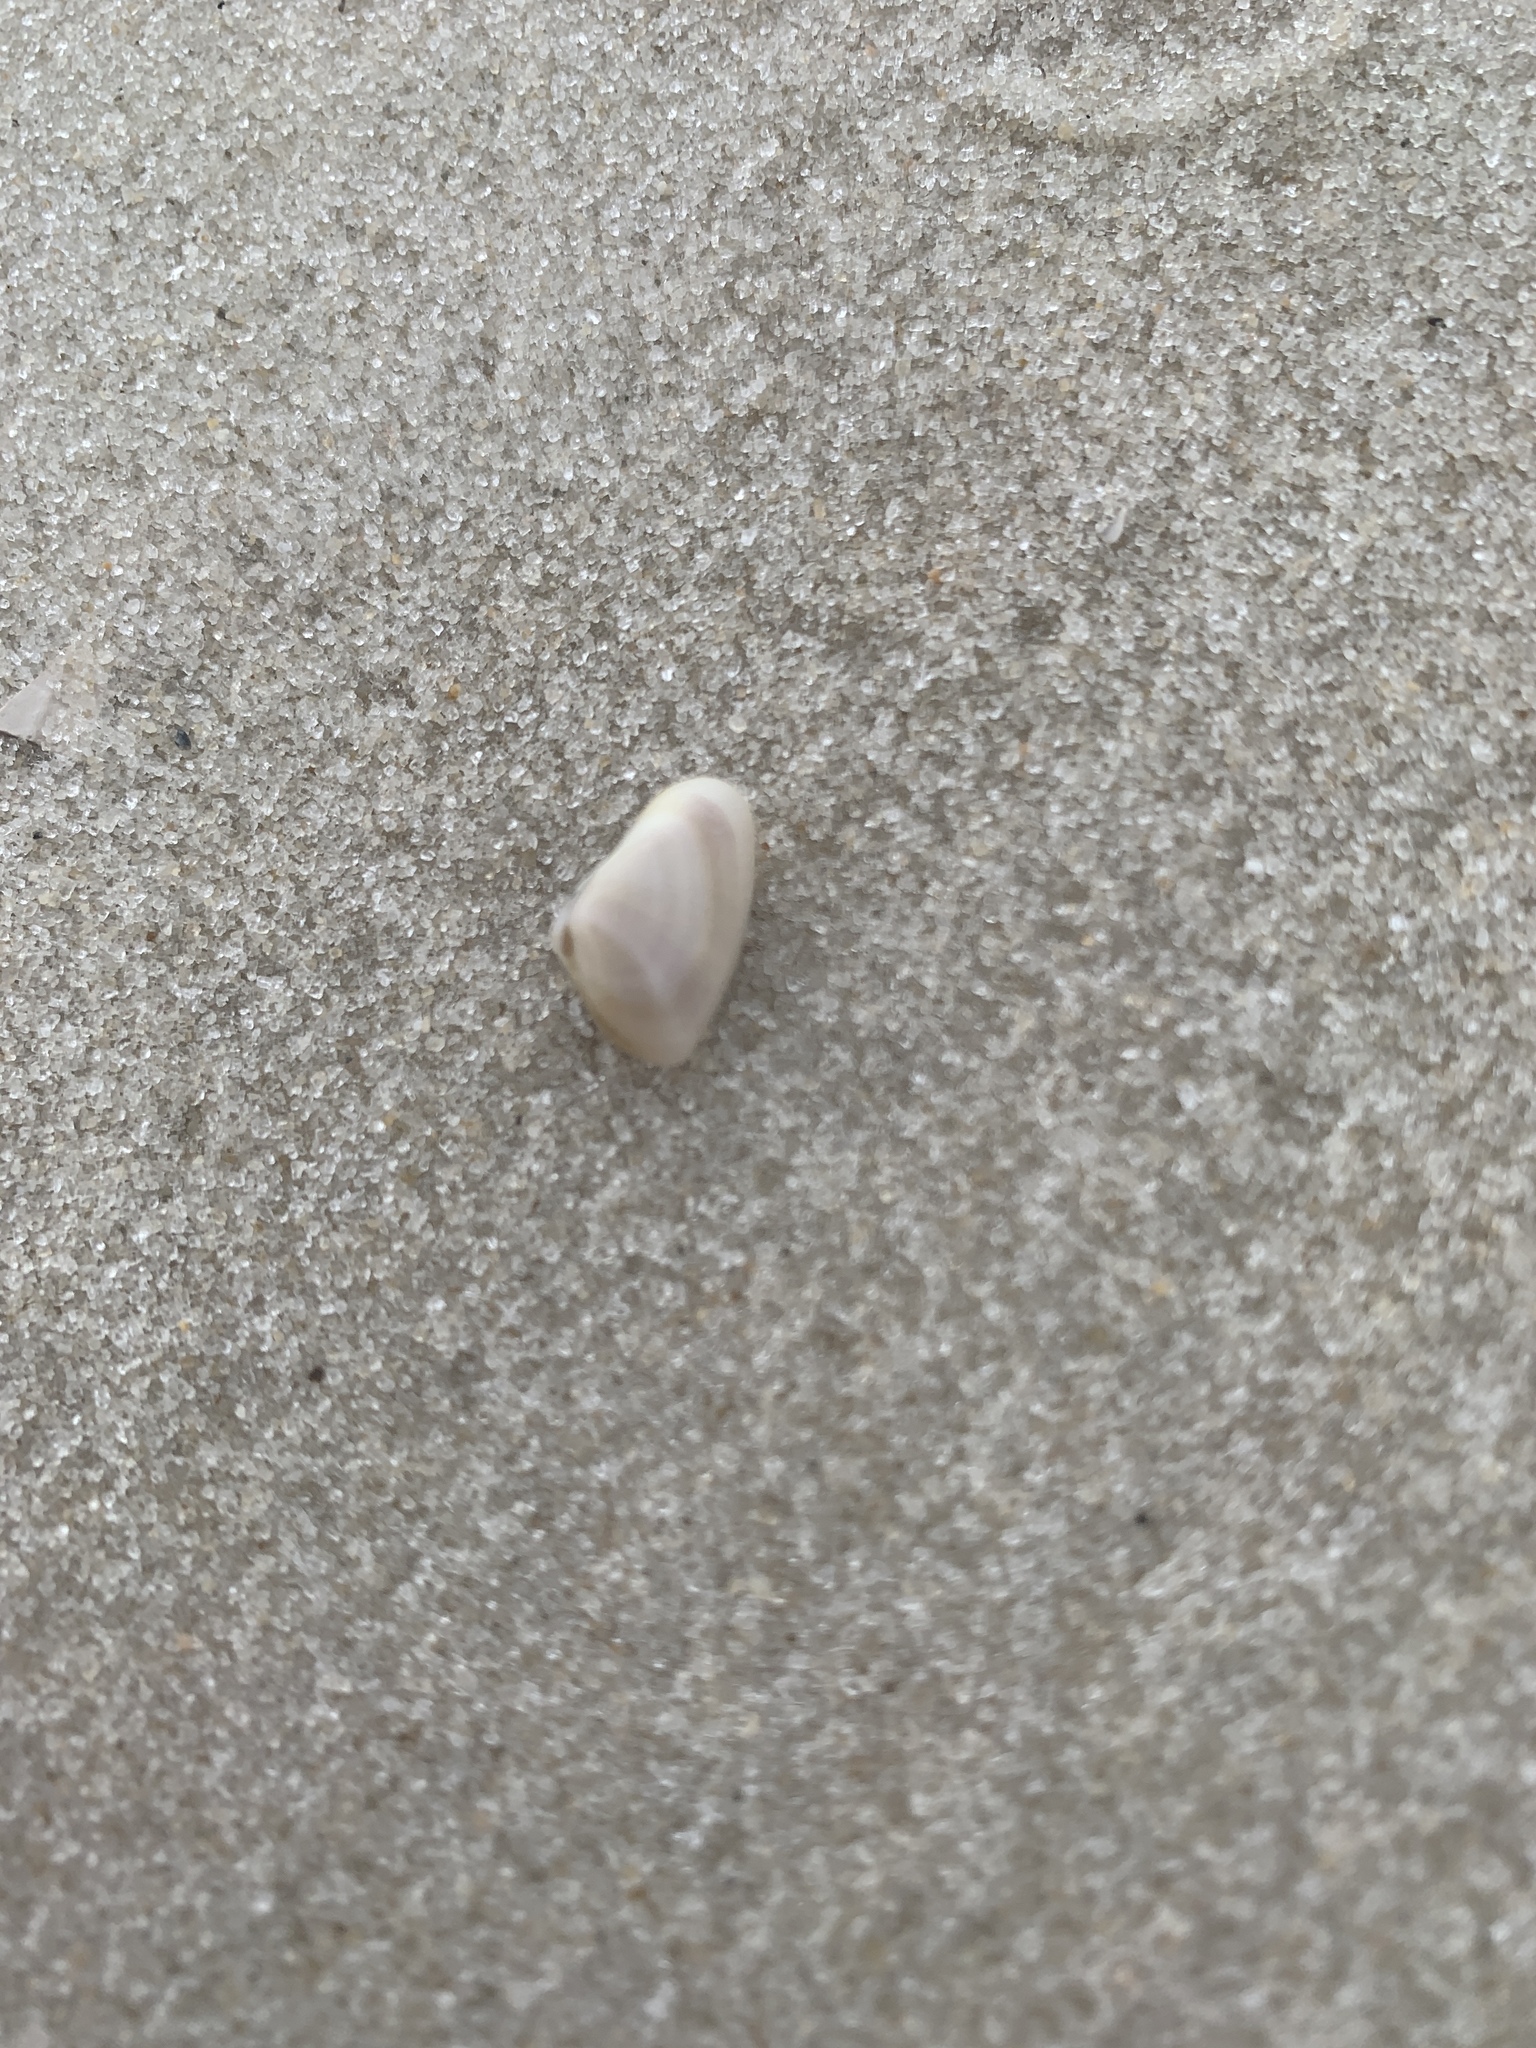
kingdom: Animalia
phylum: Mollusca
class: Bivalvia
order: Cardiida
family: Donacidae
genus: Donax
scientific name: Donax variabilis
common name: Butterfly shell
